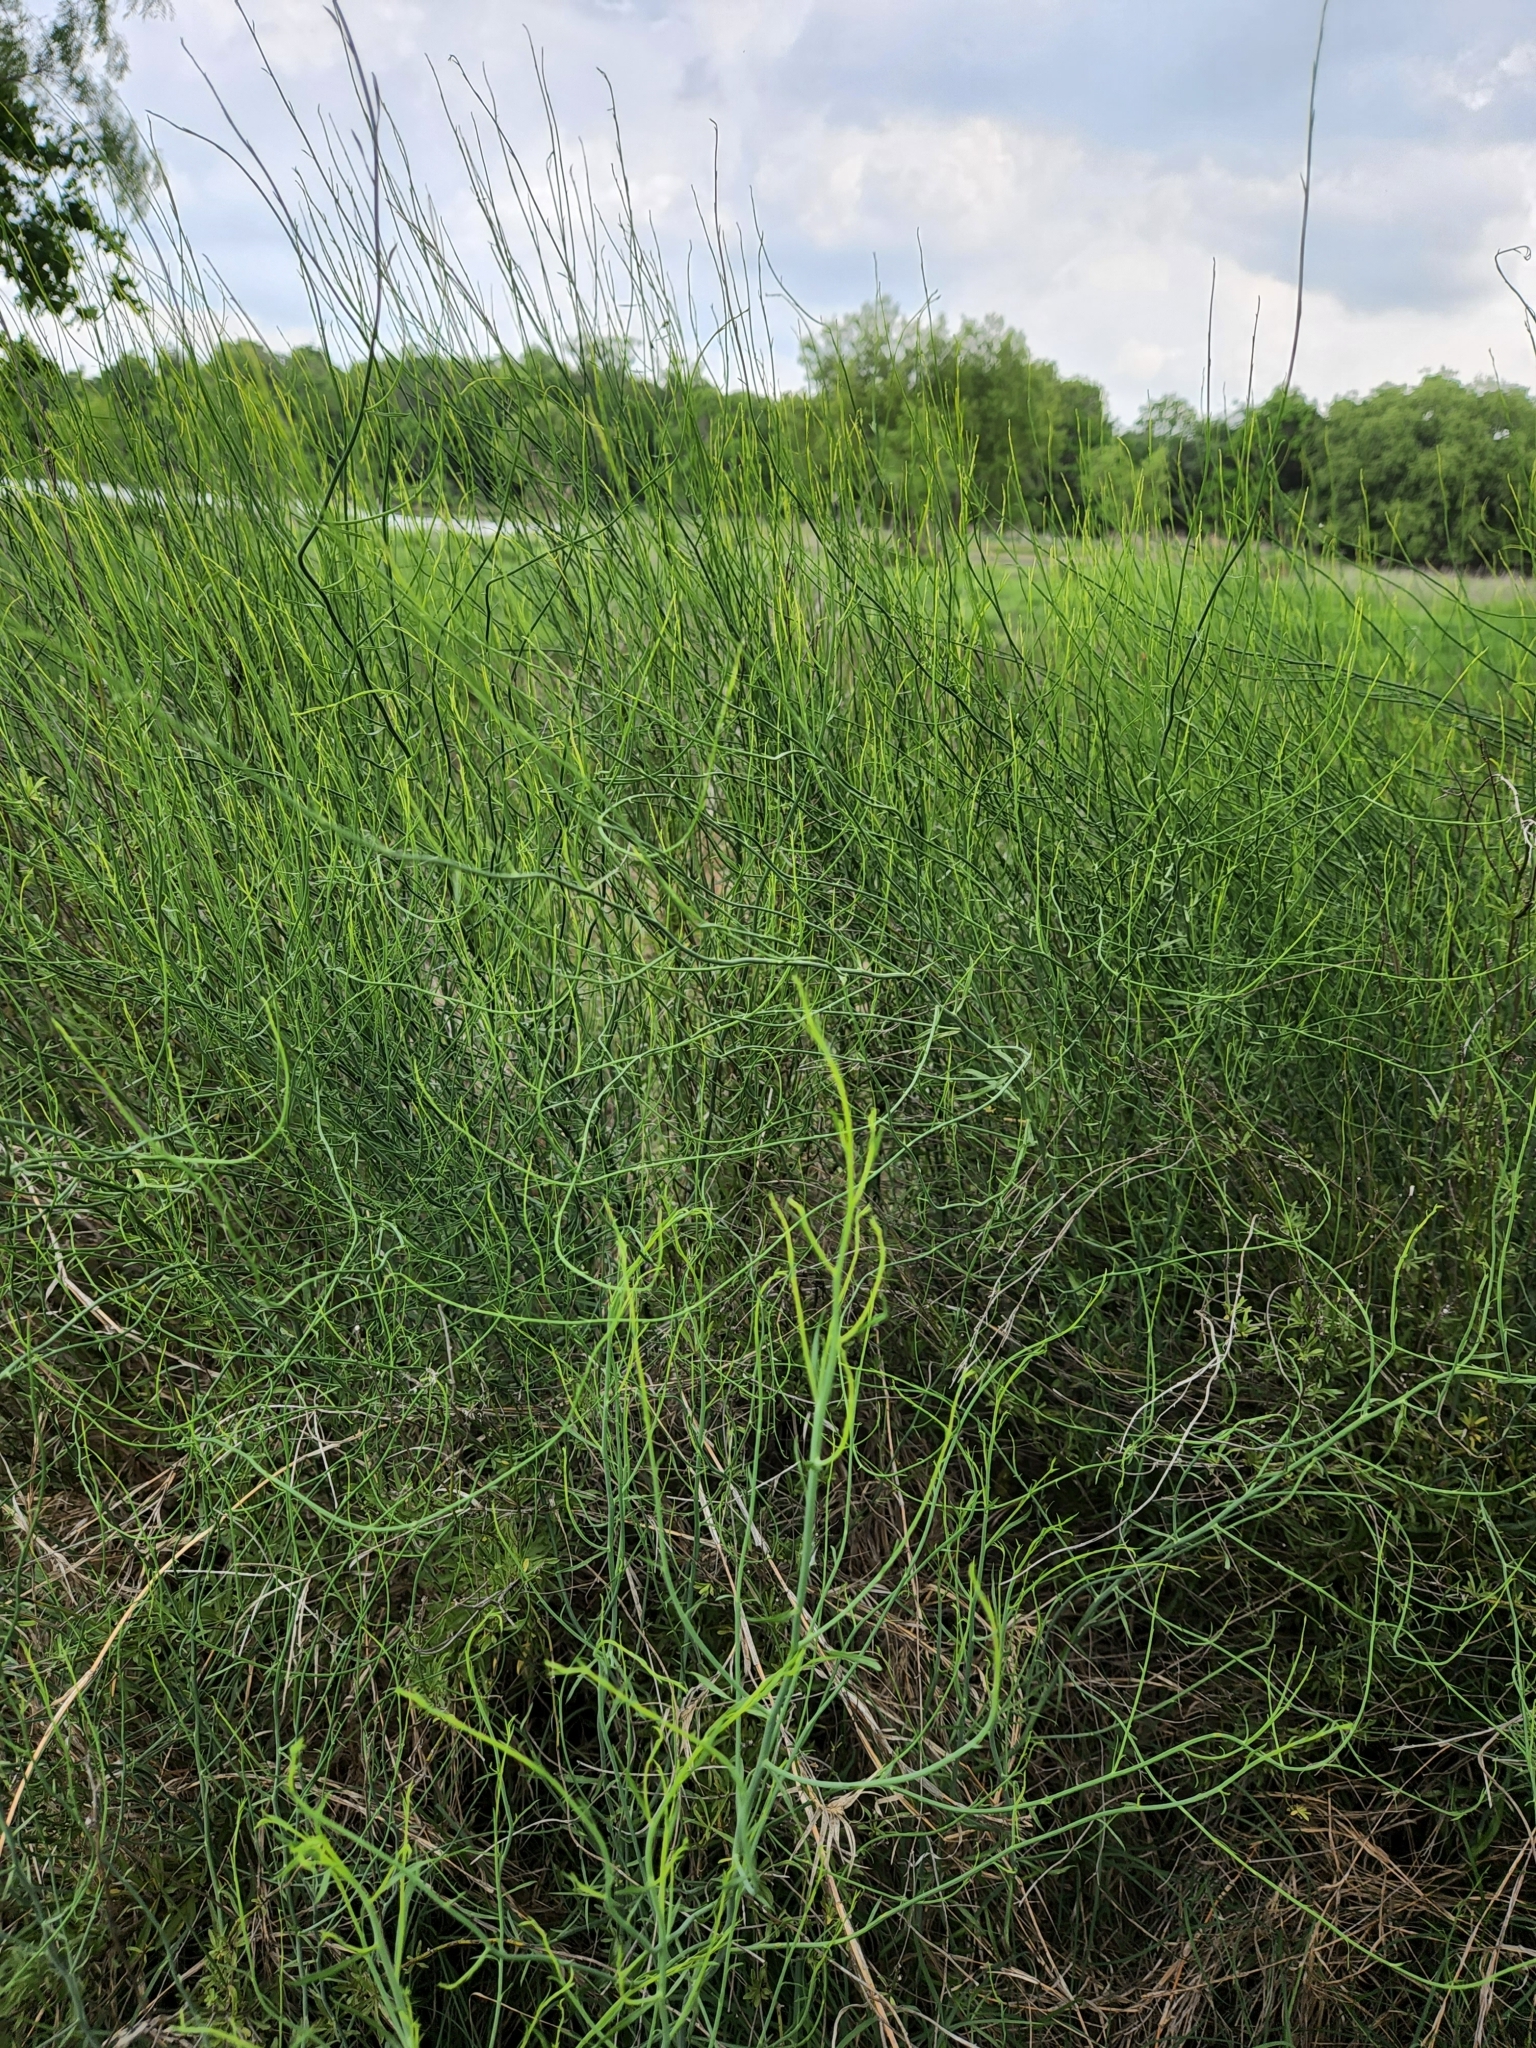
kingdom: Plantae
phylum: Tracheophyta
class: Magnoliopsida
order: Asterales
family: Asteraceae
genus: Chloracantha
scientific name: Chloracantha spinosa
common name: Mexican devilweed
